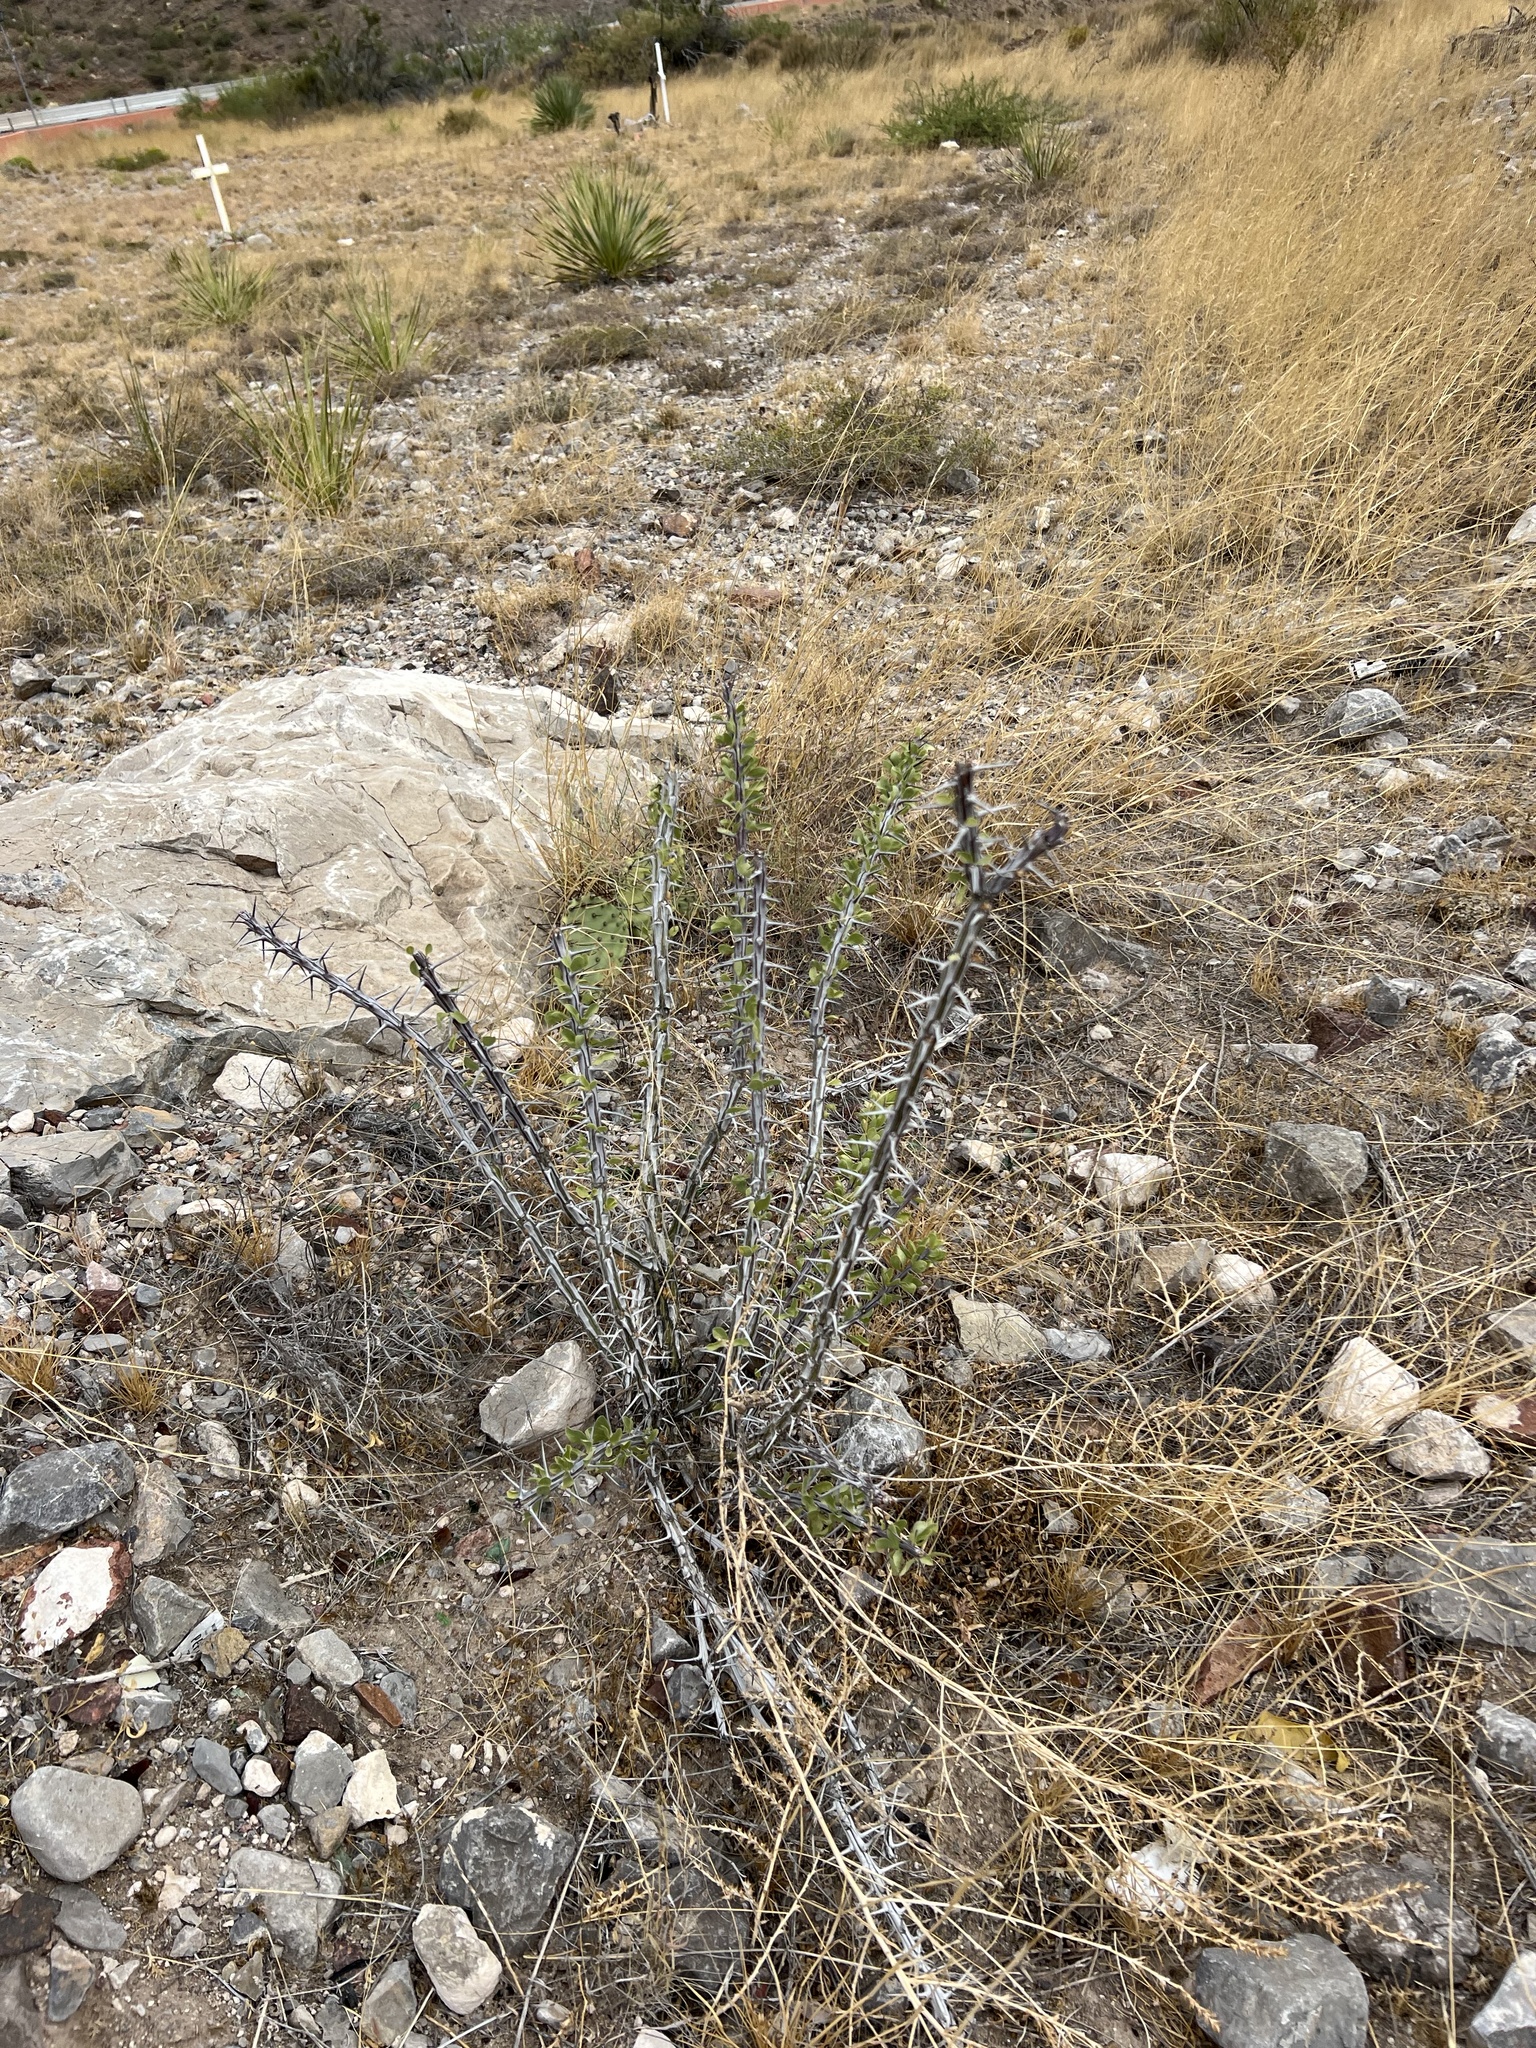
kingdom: Plantae
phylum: Tracheophyta
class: Magnoliopsida
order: Ericales
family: Fouquieriaceae
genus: Fouquieria
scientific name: Fouquieria splendens
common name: Vine-cactus
